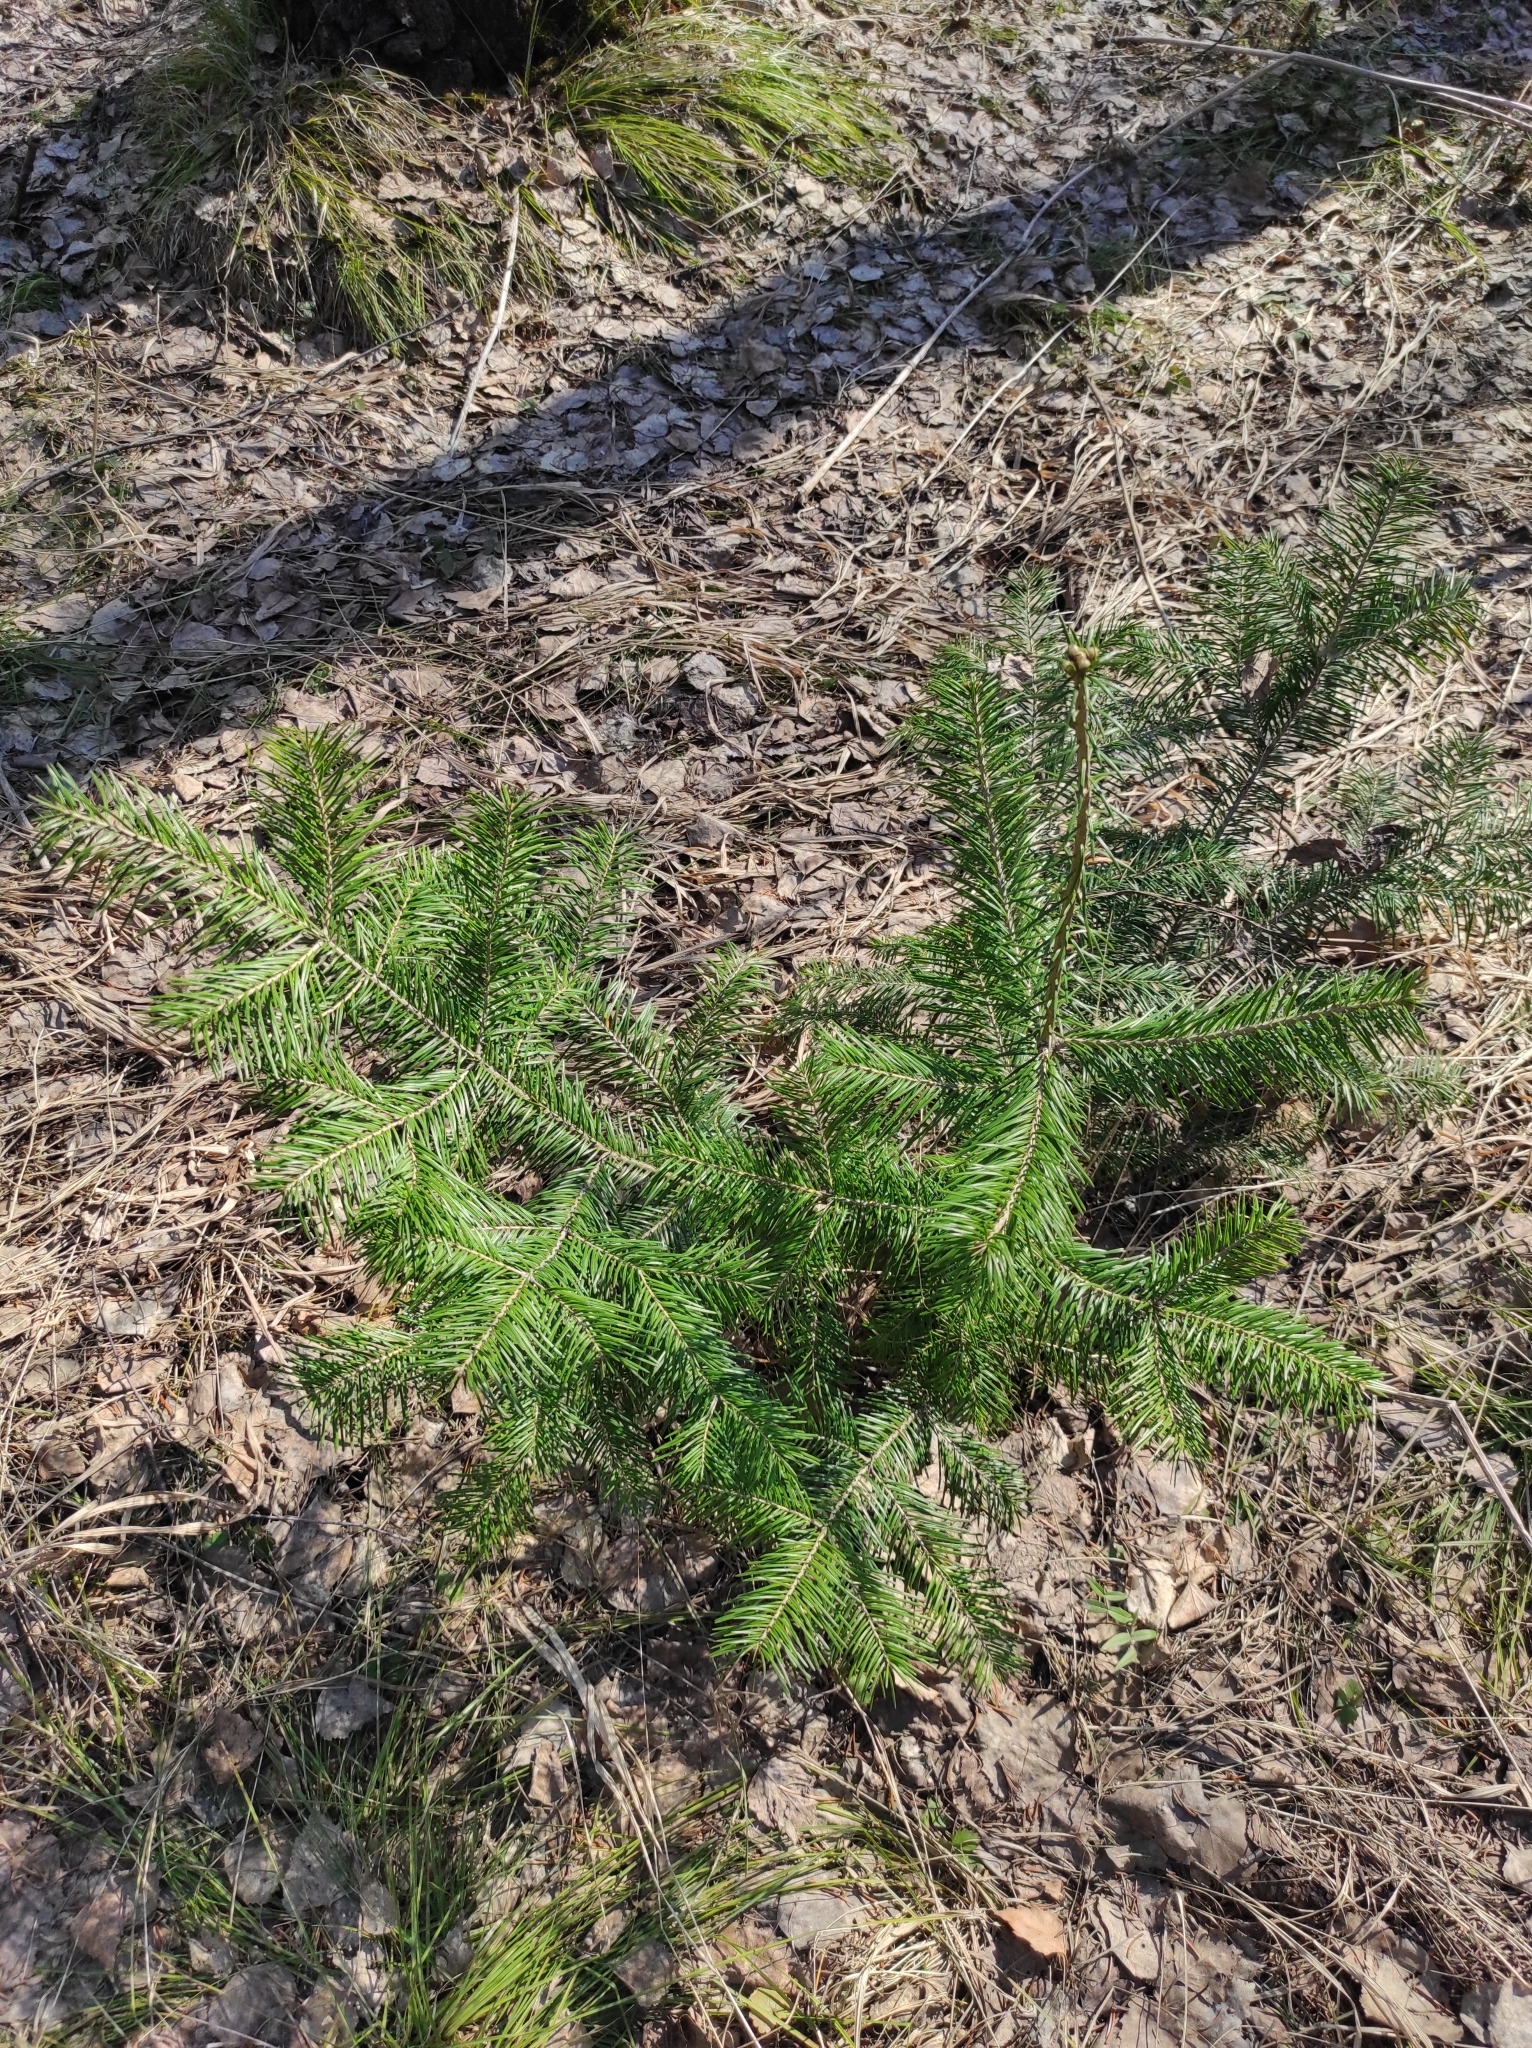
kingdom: Plantae
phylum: Tracheophyta
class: Pinopsida
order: Pinales
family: Pinaceae
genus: Abies
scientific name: Abies sibirica
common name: Siberian fir
